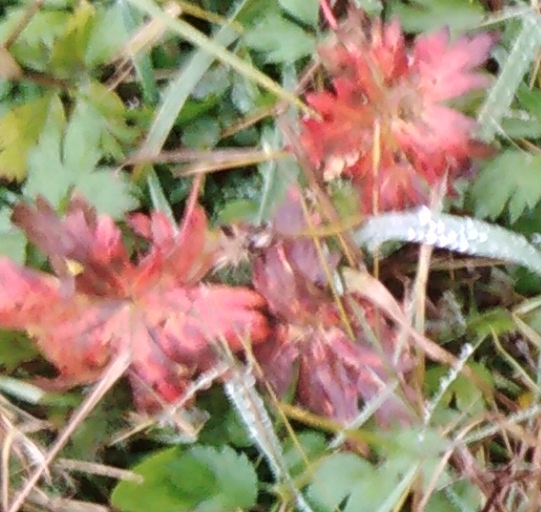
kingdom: Plantae
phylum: Tracheophyta
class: Magnoliopsida
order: Geraniales
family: Geraniaceae
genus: Geranium
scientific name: Geranium erianthum
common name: Northern crane's-bill
